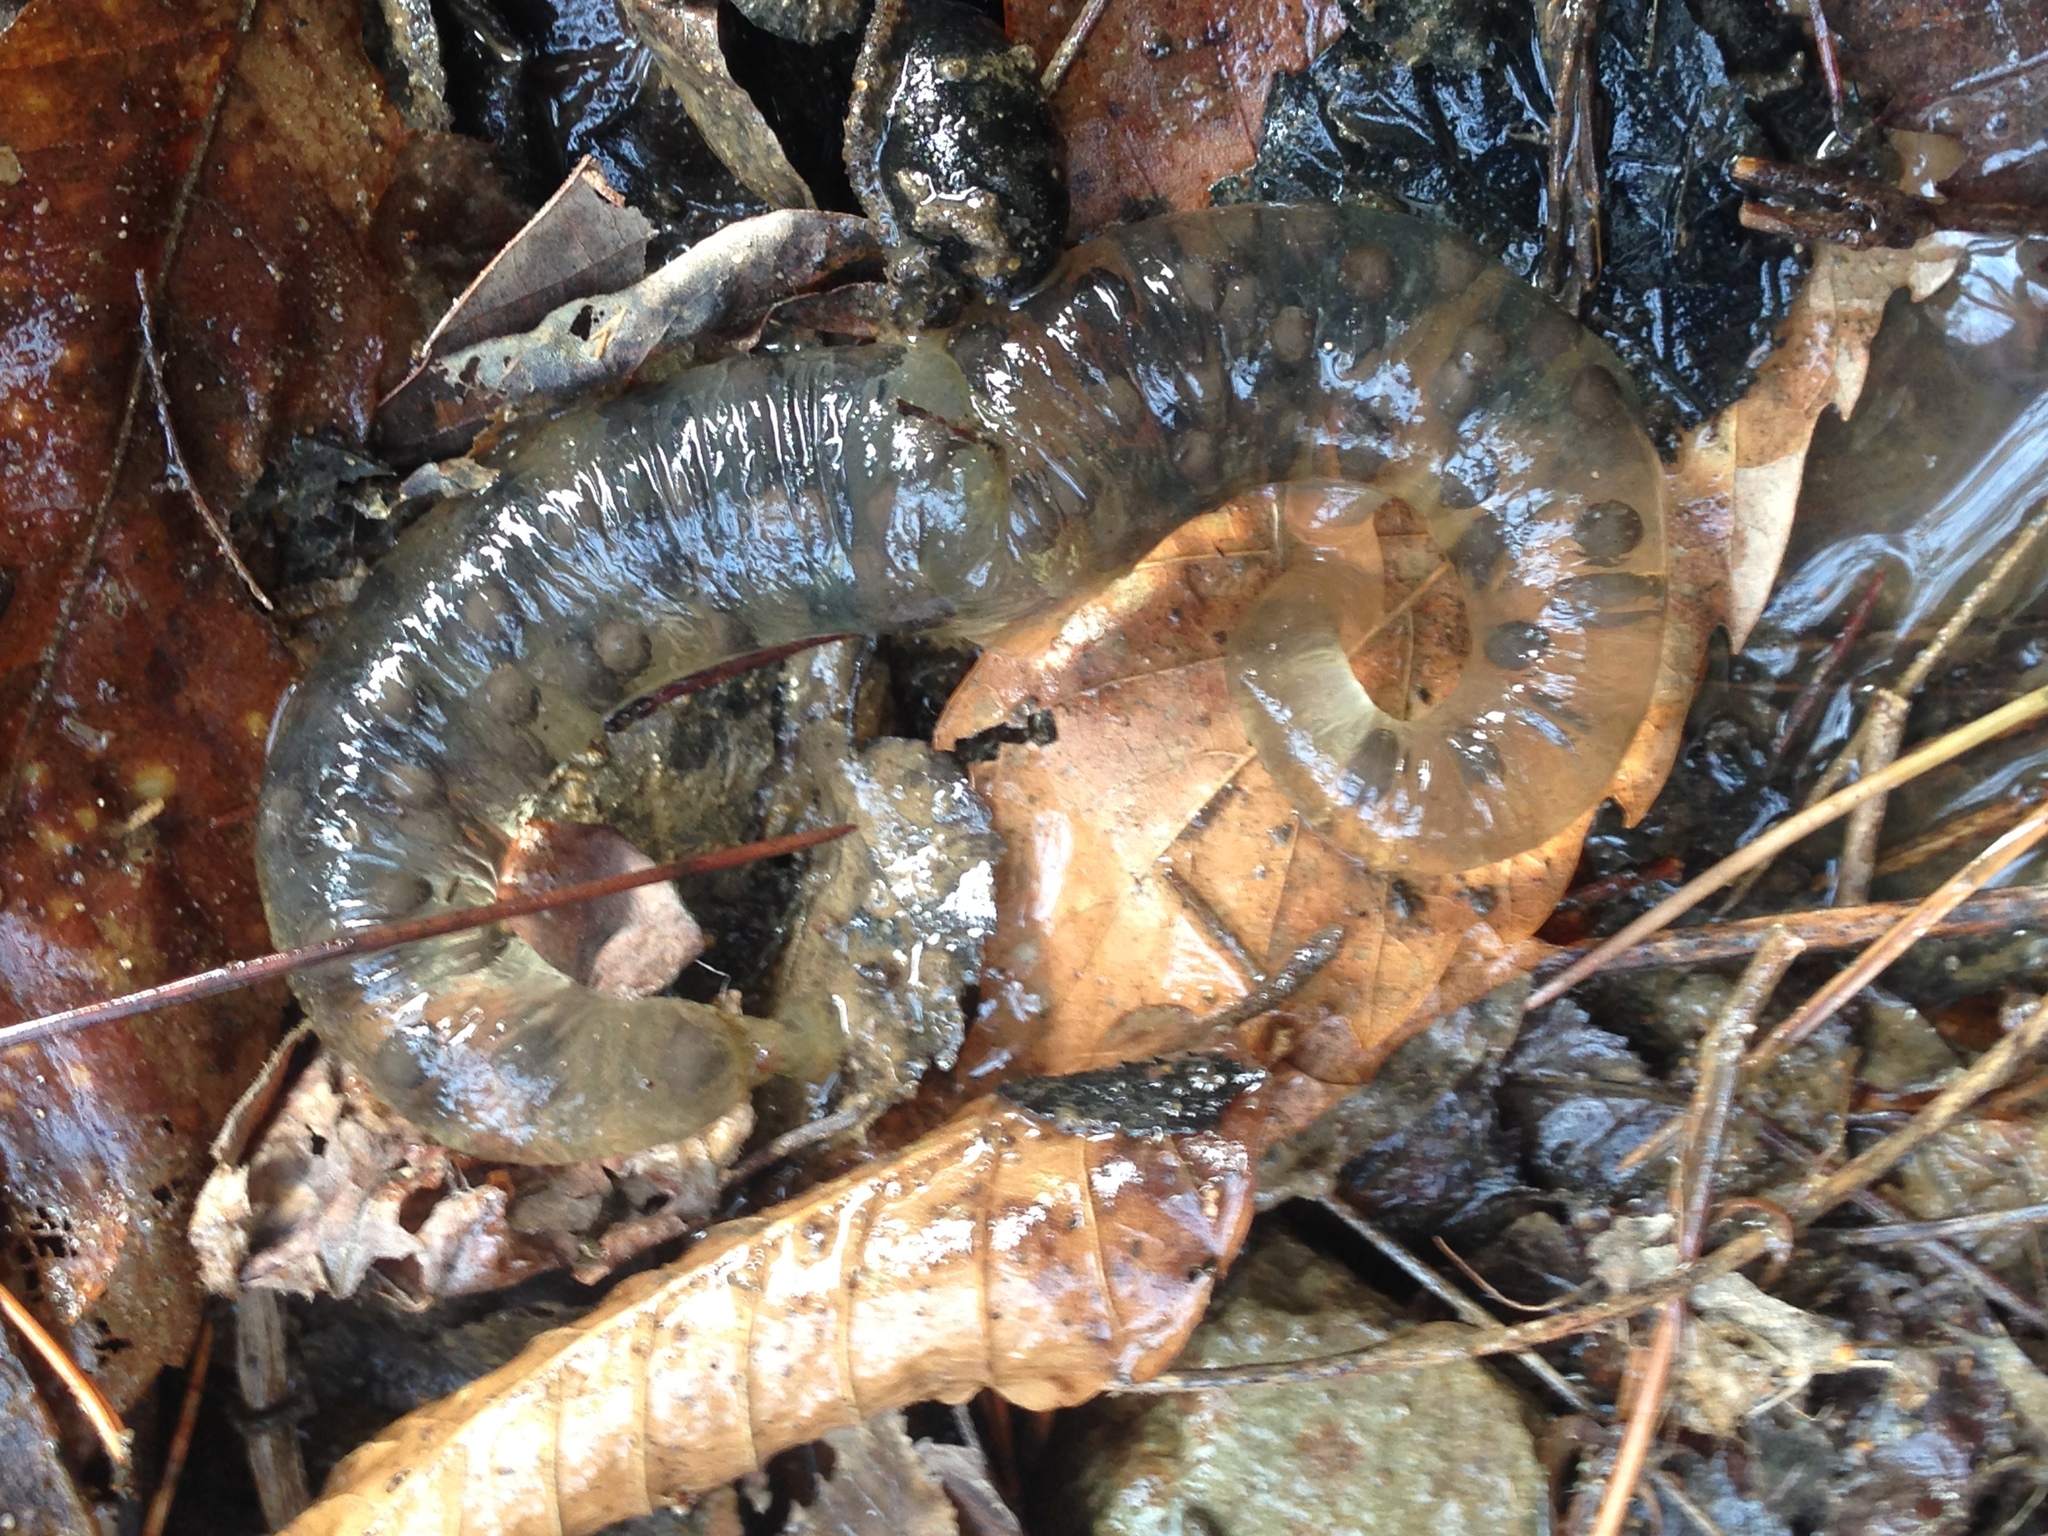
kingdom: Animalia
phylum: Chordata
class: Amphibia
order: Caudata
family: Hynobiidae
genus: Hynobius
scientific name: Hynobius yangi
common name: Yangi salamander
